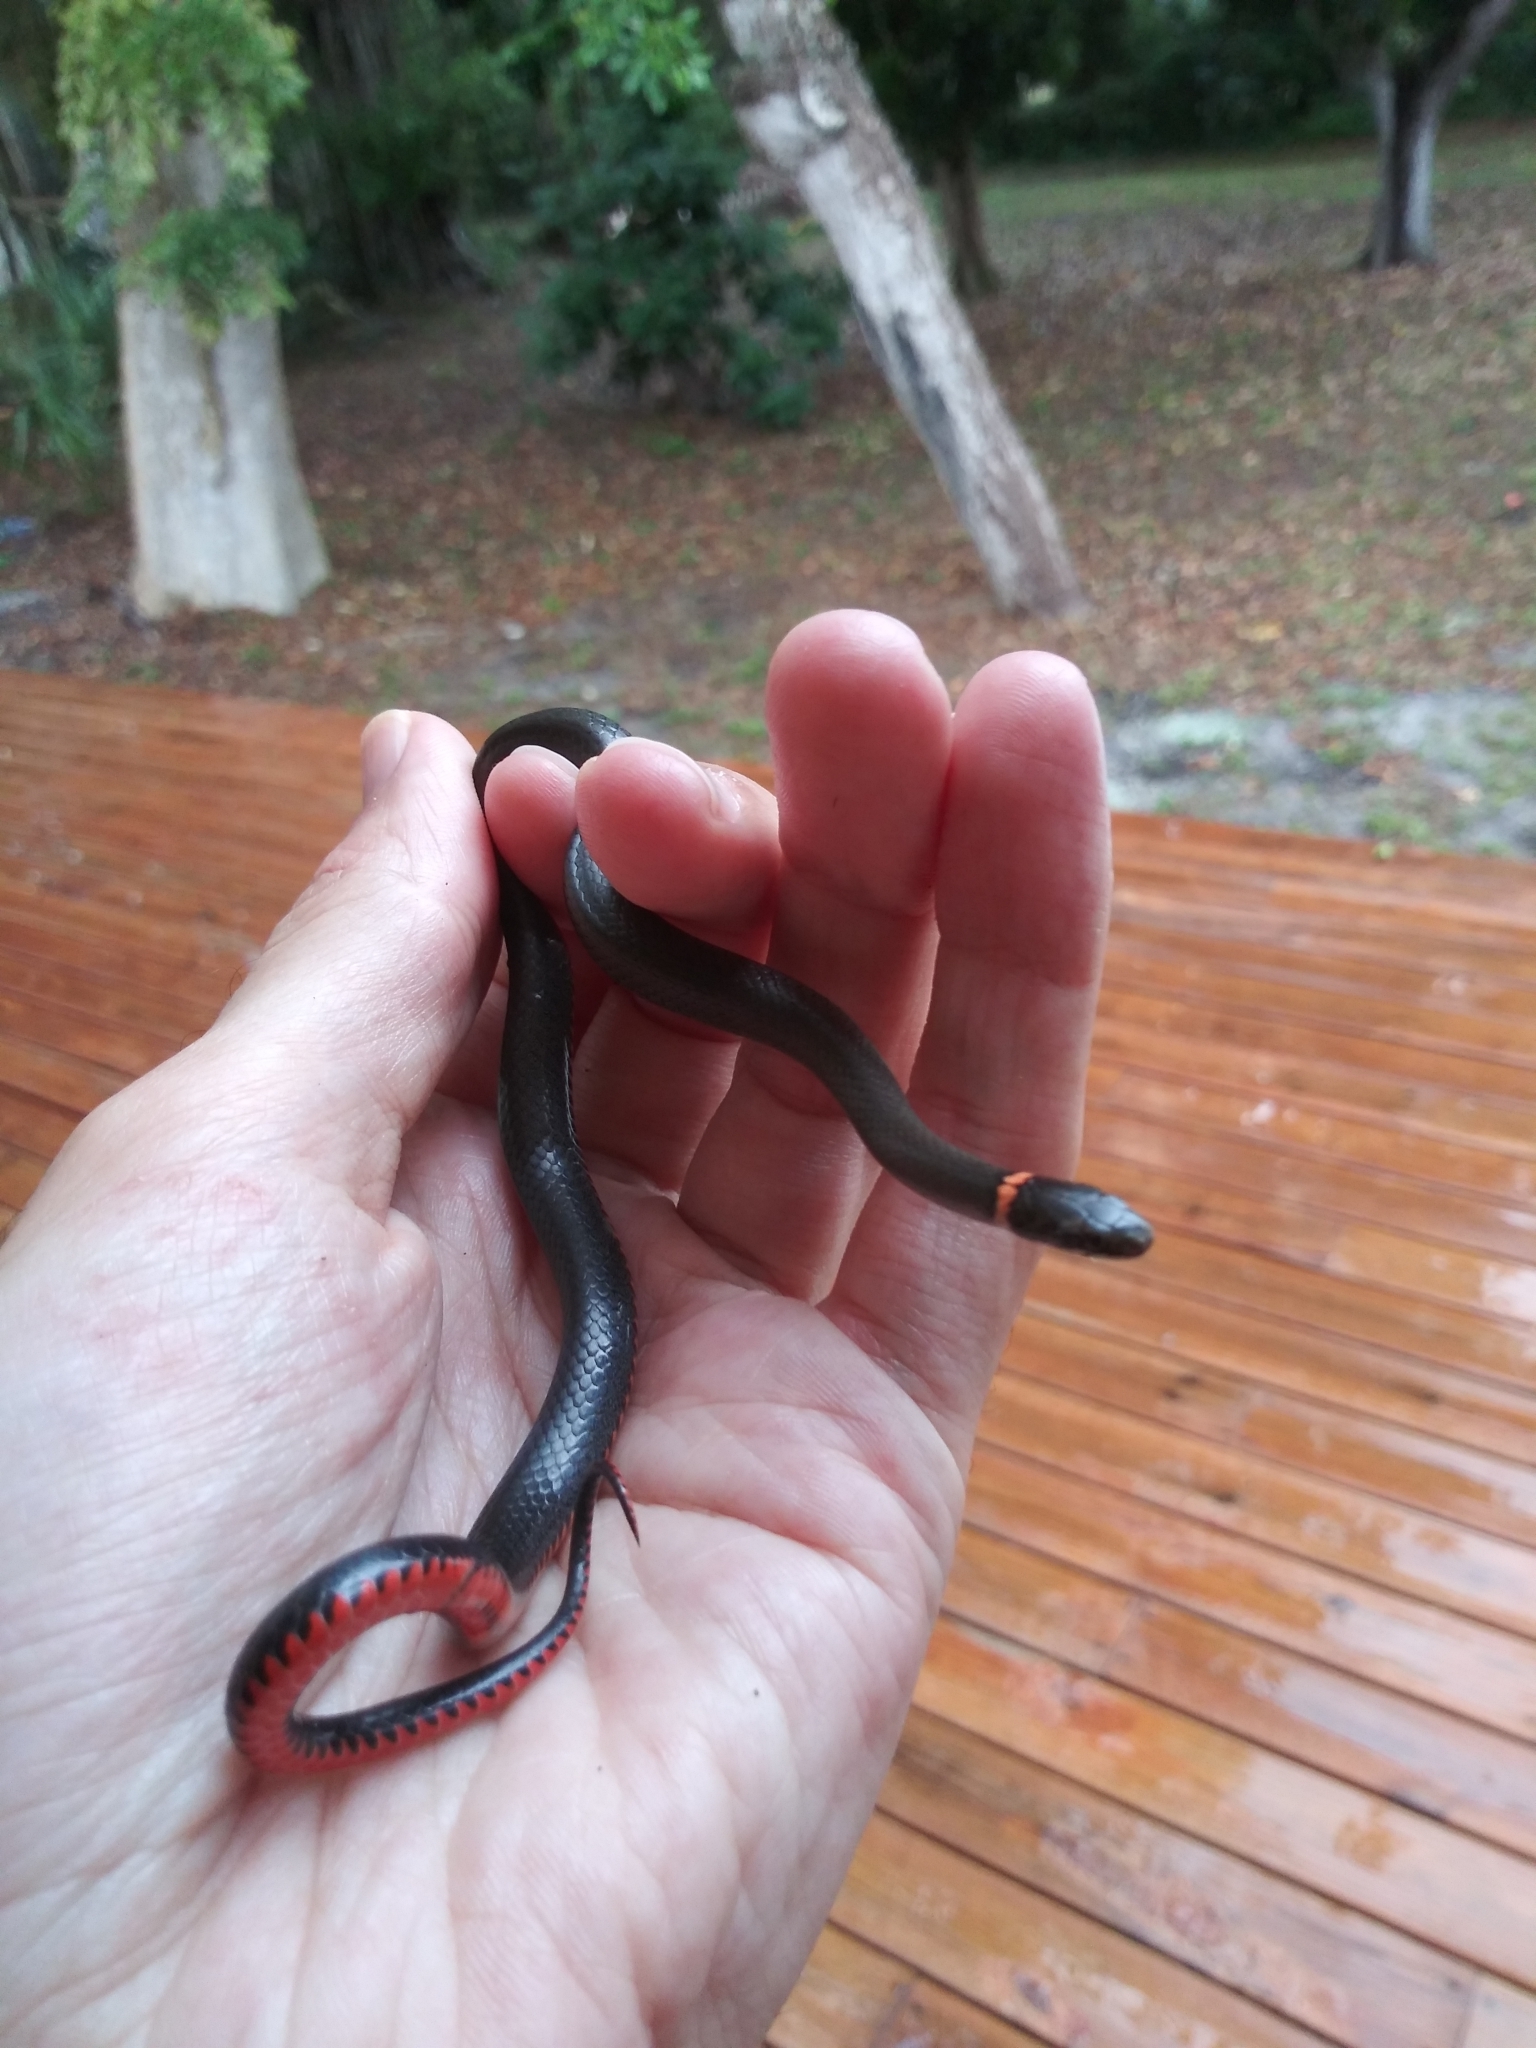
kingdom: Animalia
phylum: Chordata
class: Squamata
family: Colubridae
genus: Diadophis
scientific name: Diadophis punctatus
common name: Ringneck snake
